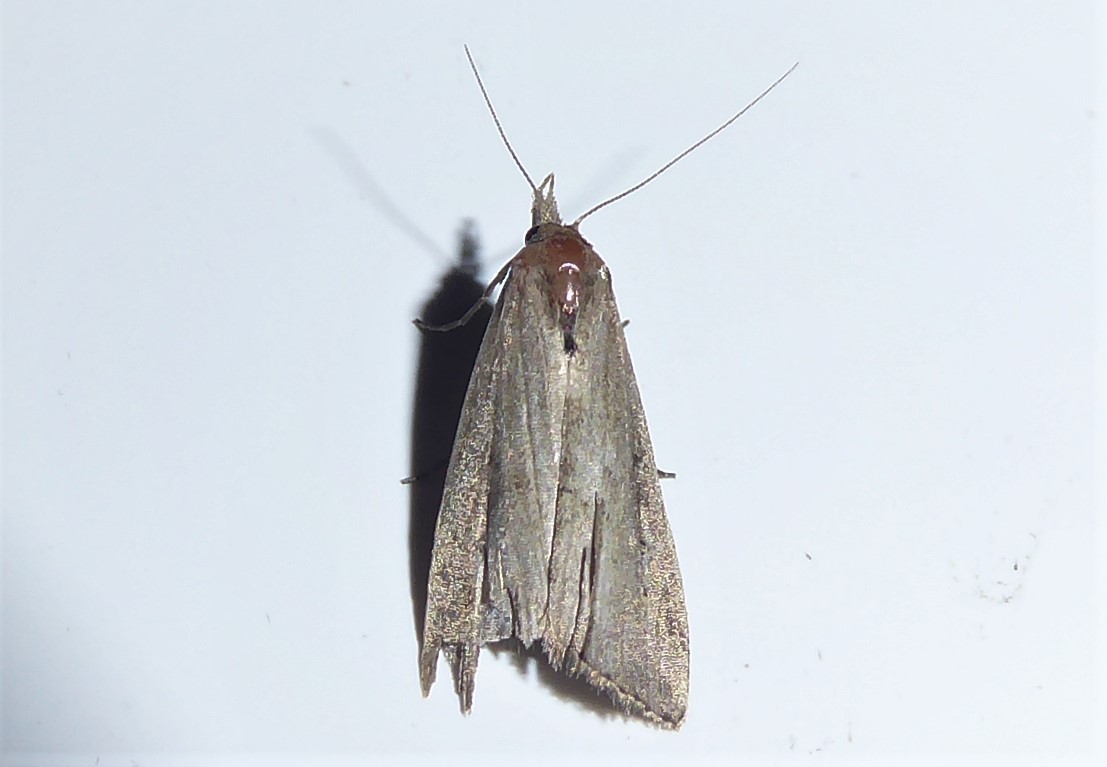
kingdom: Animalia
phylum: Arthropoda
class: Insecta
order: Lepidoptera
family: Erebidae
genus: Schrankia
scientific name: Schrankia costaestrigalis
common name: Pinion-streaked snout
